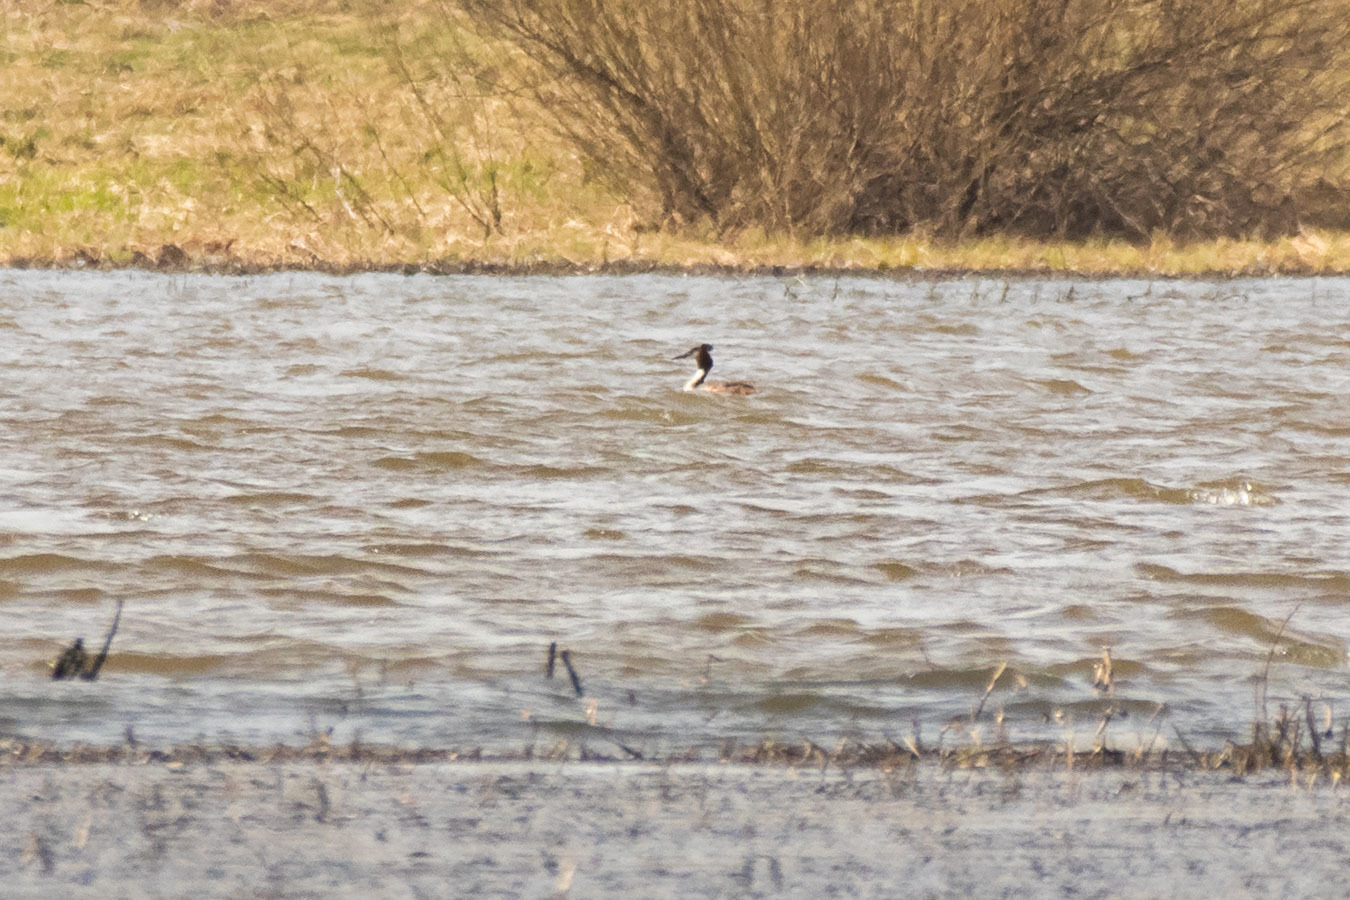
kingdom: Animalia
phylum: Chordata
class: Aves
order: Podicipediformes
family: Podicipedidae
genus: Podiceps
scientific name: Podiceps cristatus
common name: Great crested grebe
